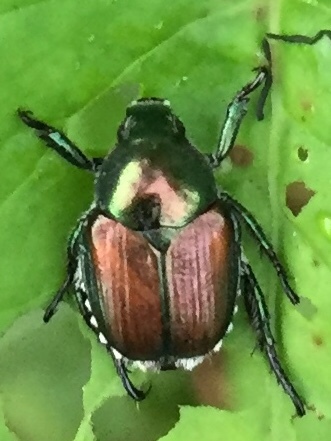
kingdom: Animalia
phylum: Arthropoda
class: Insecta
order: Coleoptera
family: Scarabaeidae
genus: Popillia
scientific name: Popillia japonica
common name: Japanese beetle
